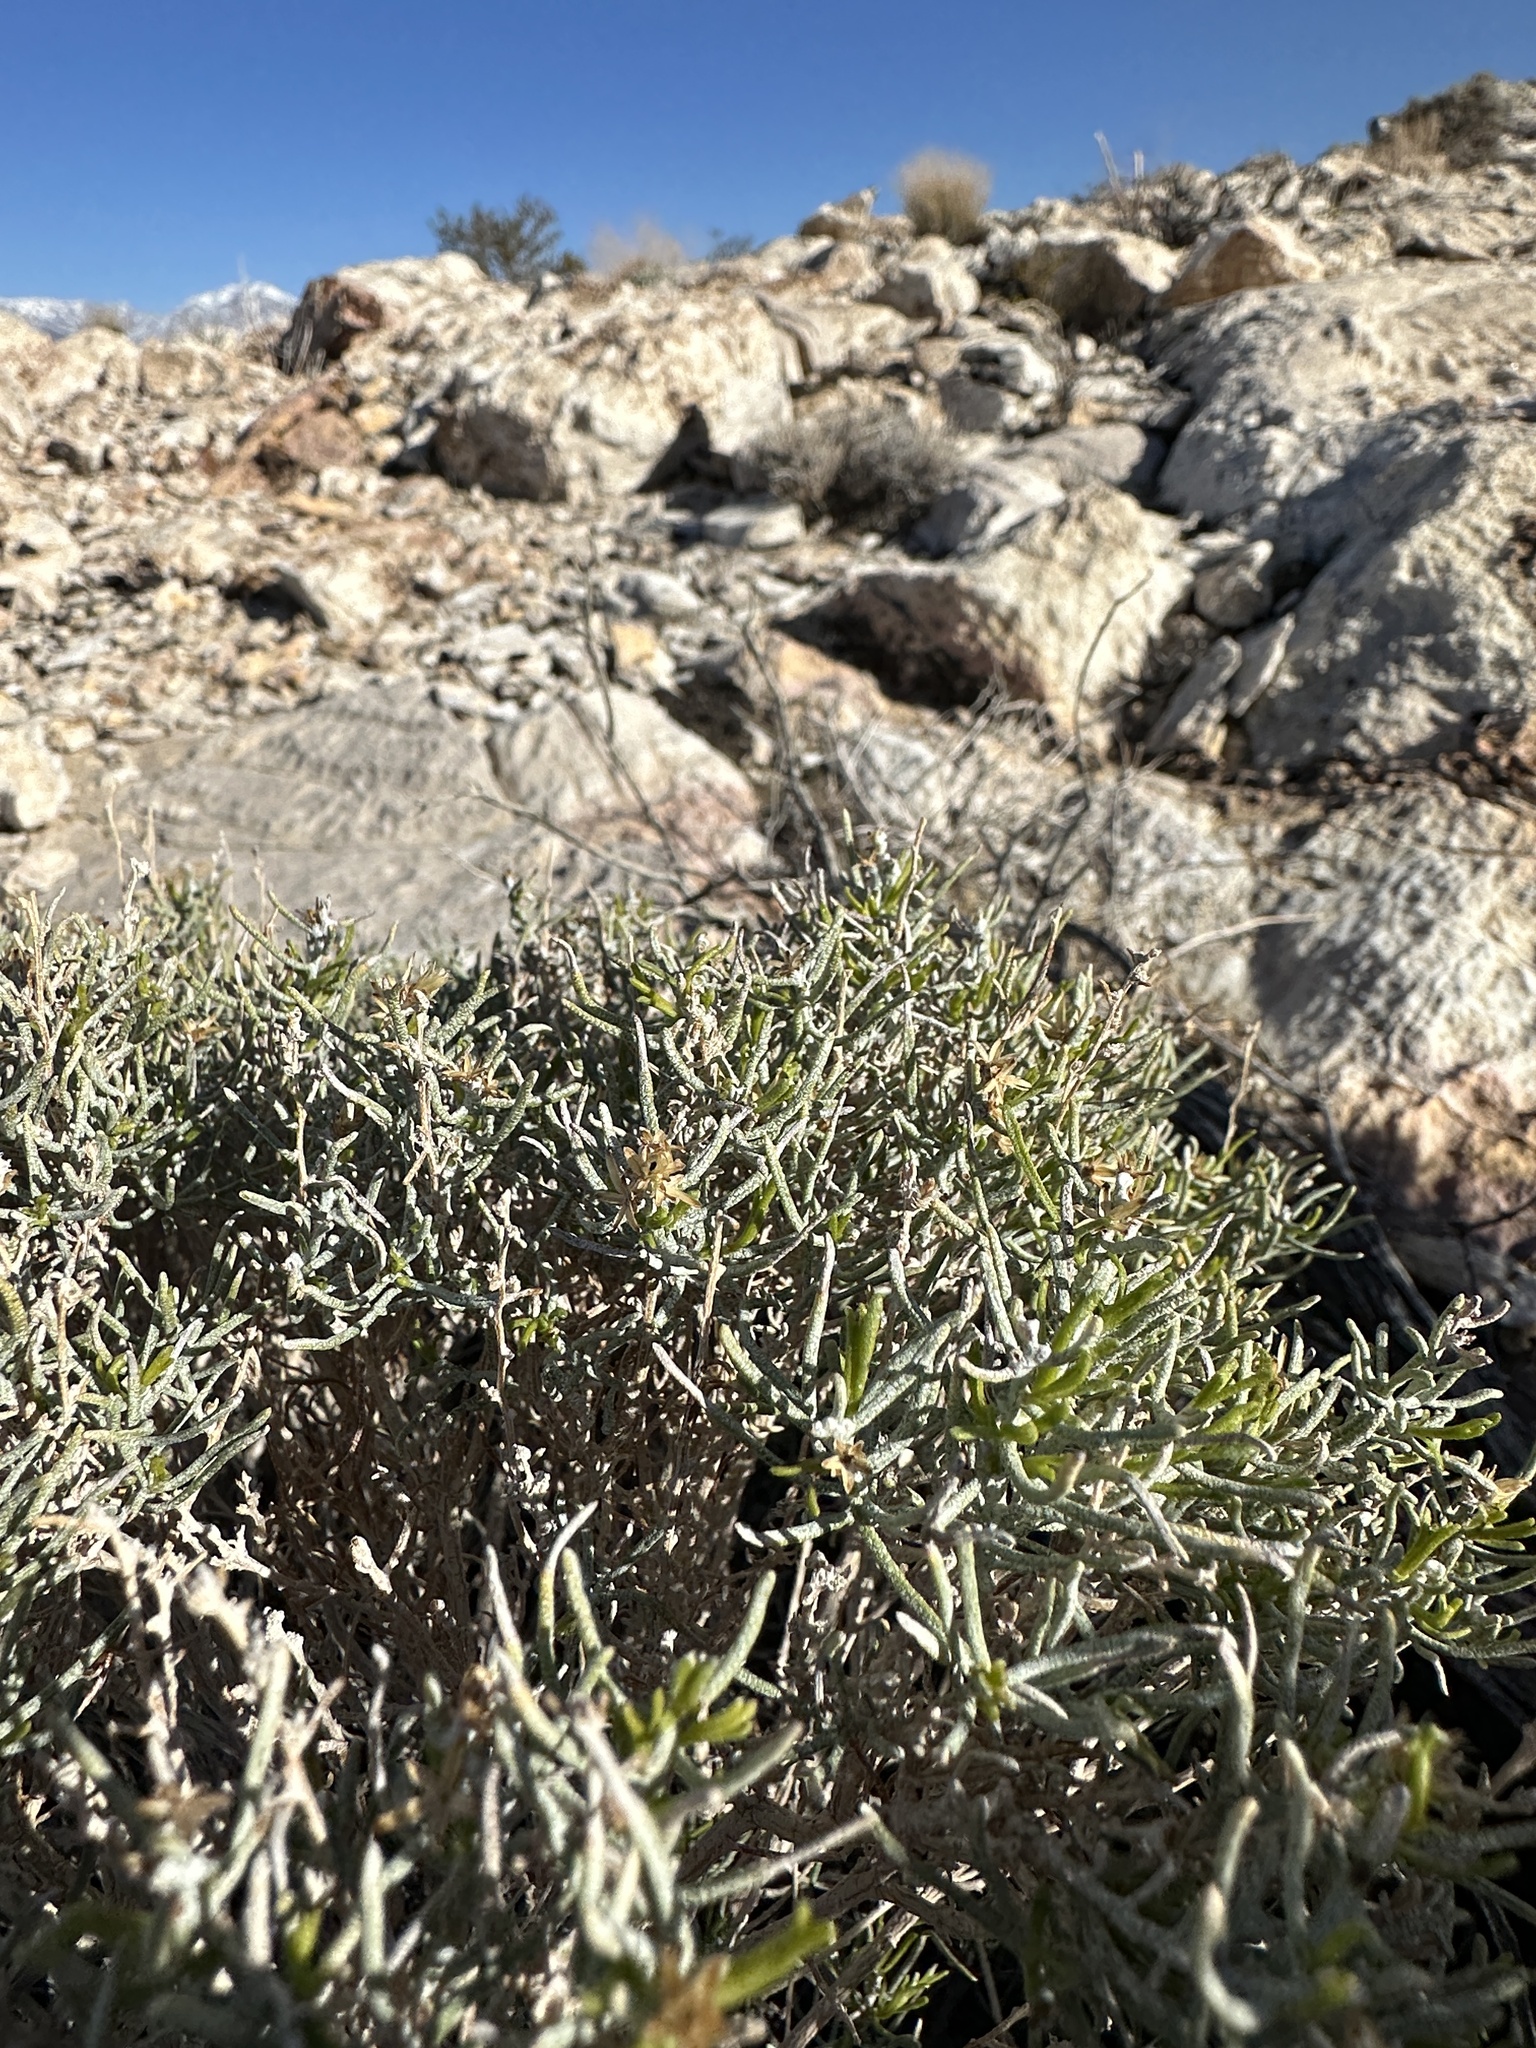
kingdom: Plantae
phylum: Tracheophyta
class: Magnoliopsida
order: Asterales
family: Asteraceae
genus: Ericameria
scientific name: Ericameria teretifolia
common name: Round-leaf rabbitbrush
